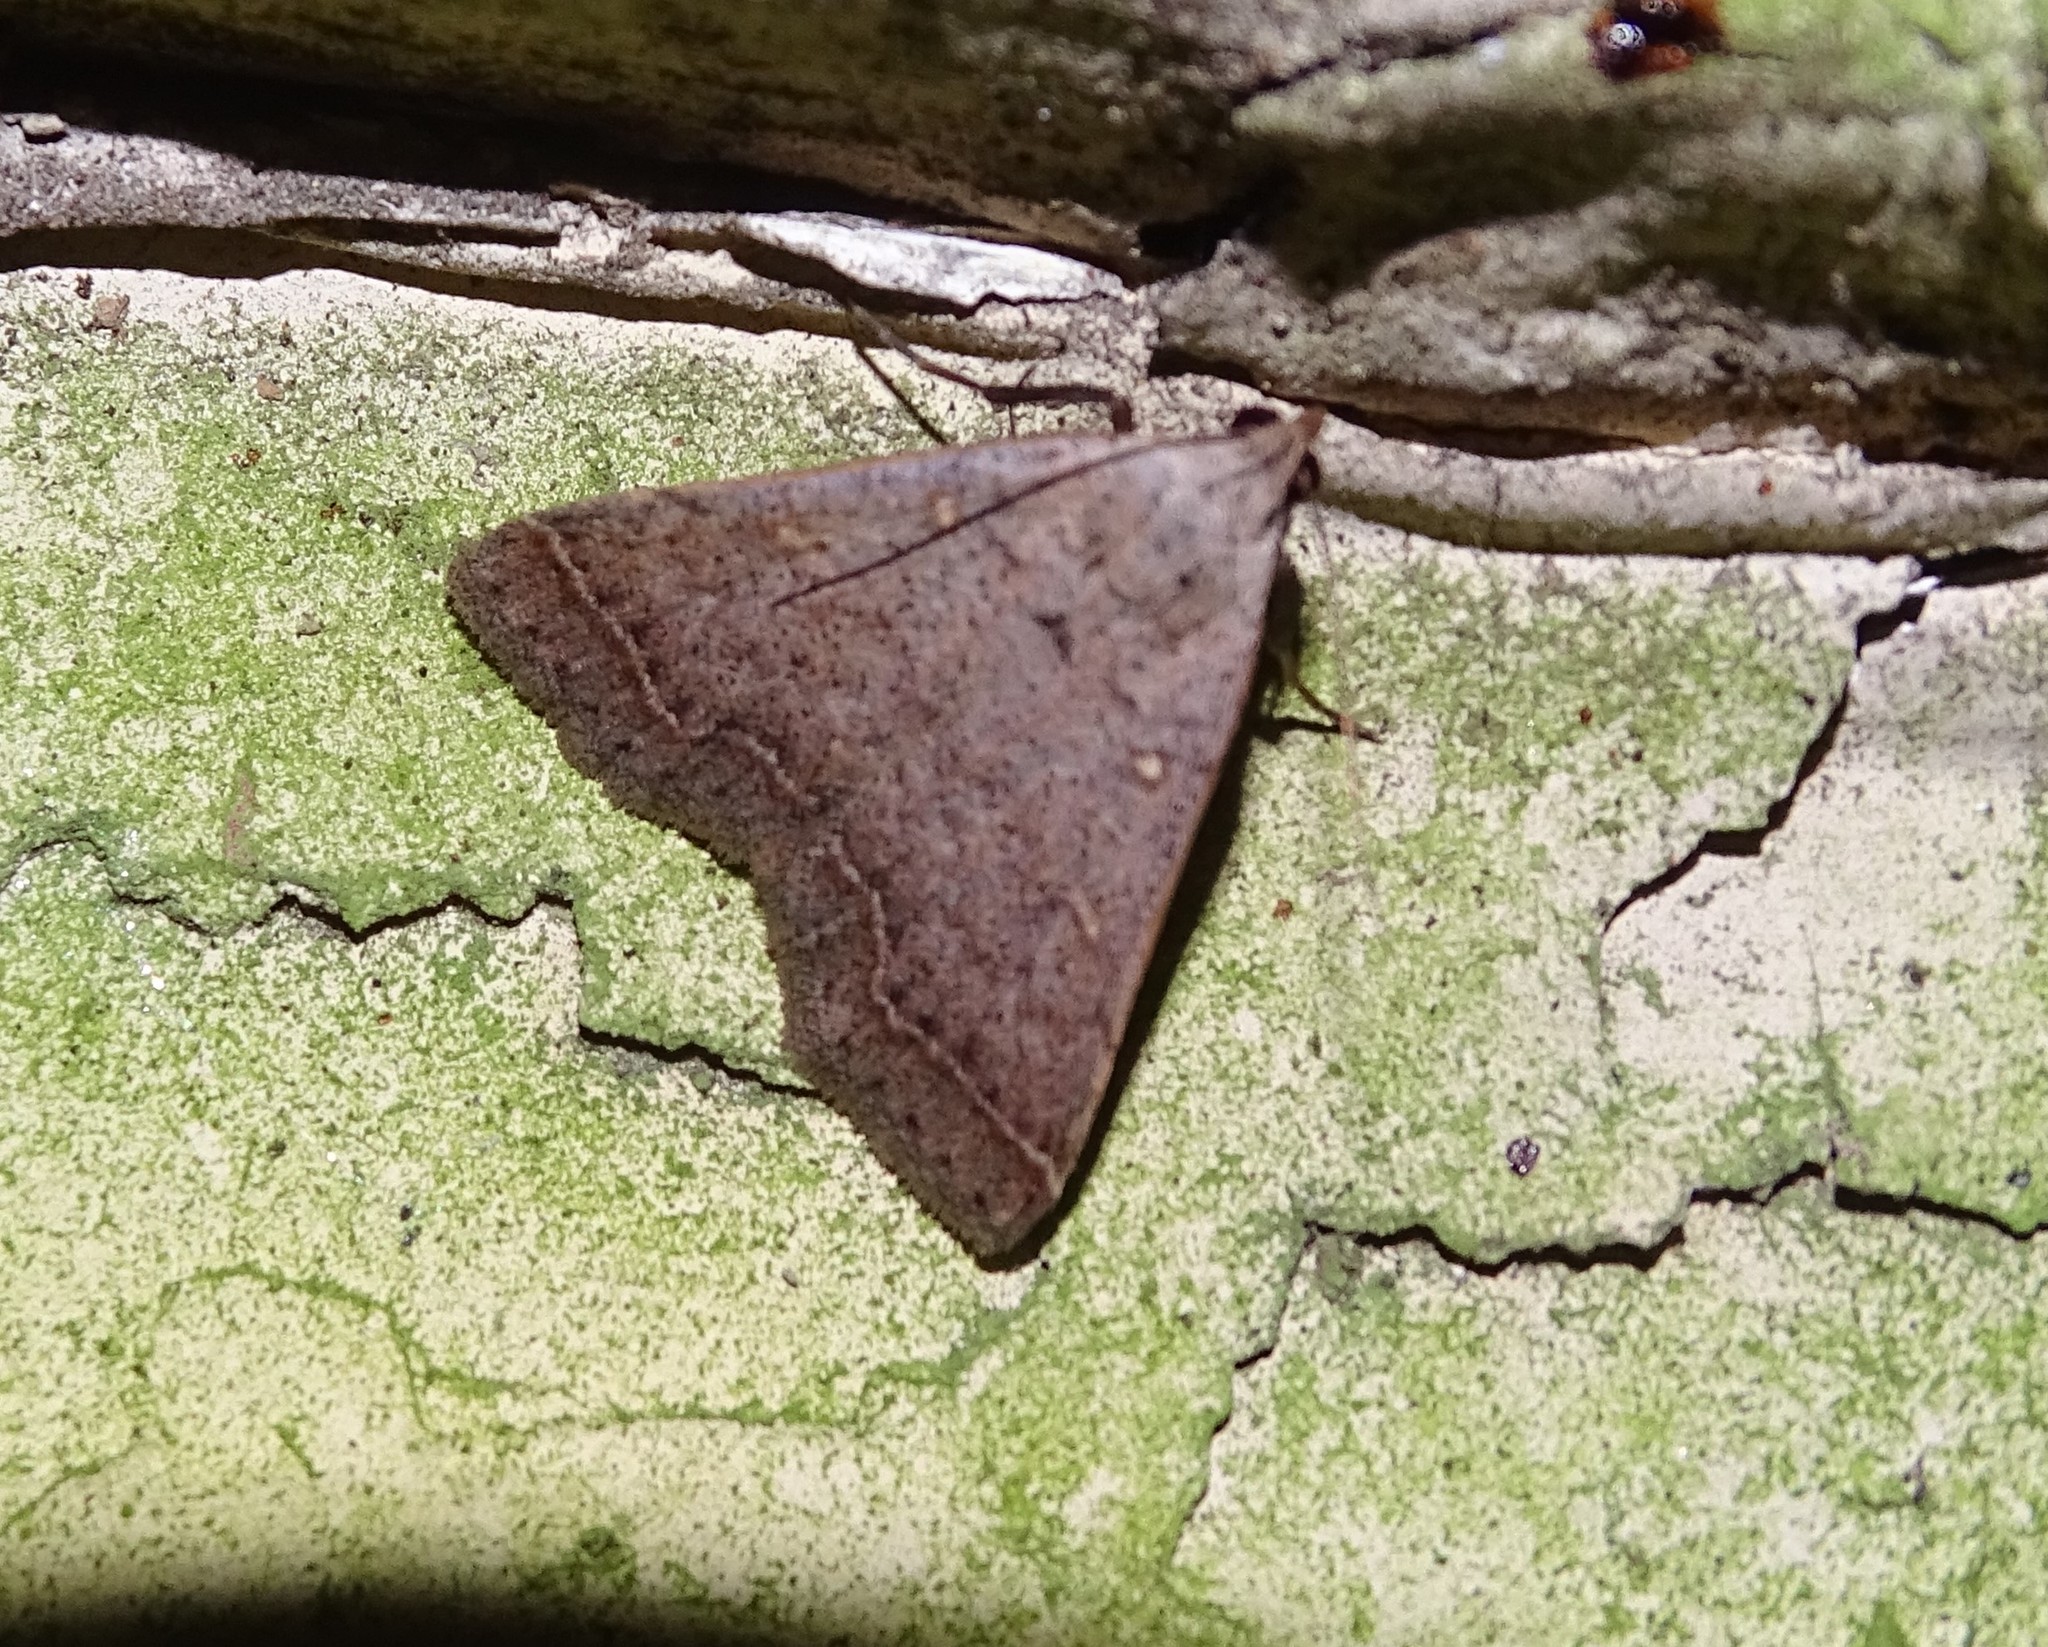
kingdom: Animalia
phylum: Arthropoda
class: Insecta
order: Lepidoptera
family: Erebidae
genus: Bleptina
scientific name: Bleptina caradrinalis
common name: Bent-winged owlet
